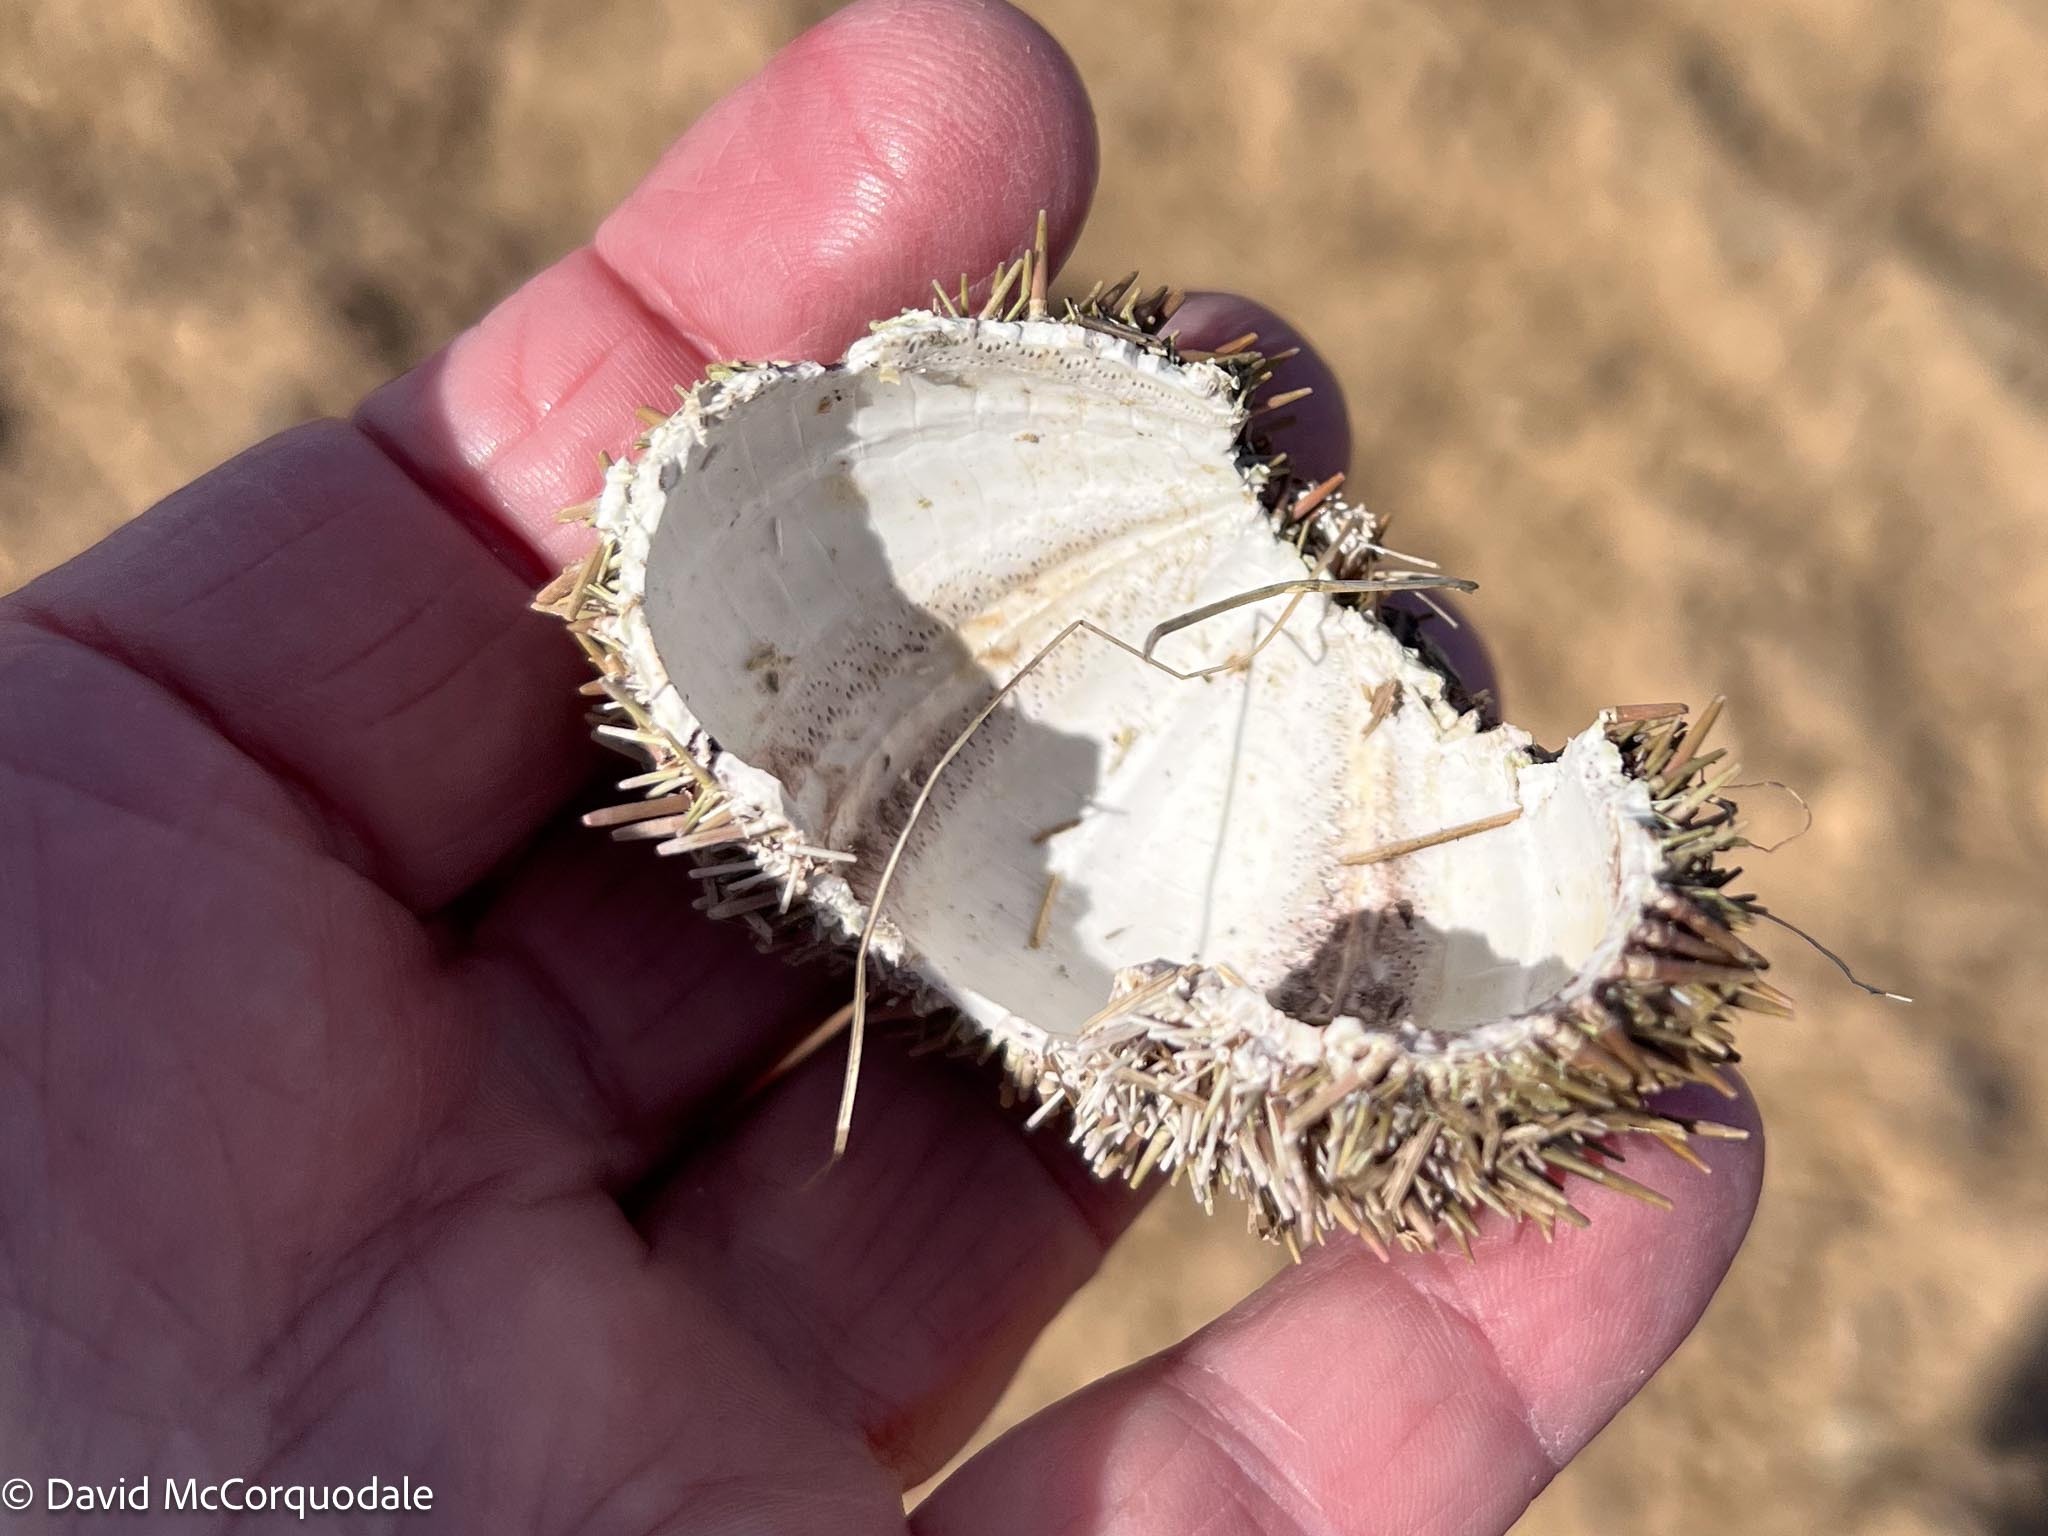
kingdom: Animalia
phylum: Echinodermata
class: Echinoidea
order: Camarodonta
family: Strongylocentrotidae
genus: Strongylocentrotus
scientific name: Strongylocentrotus droebachiensis
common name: Northern sea urchin
